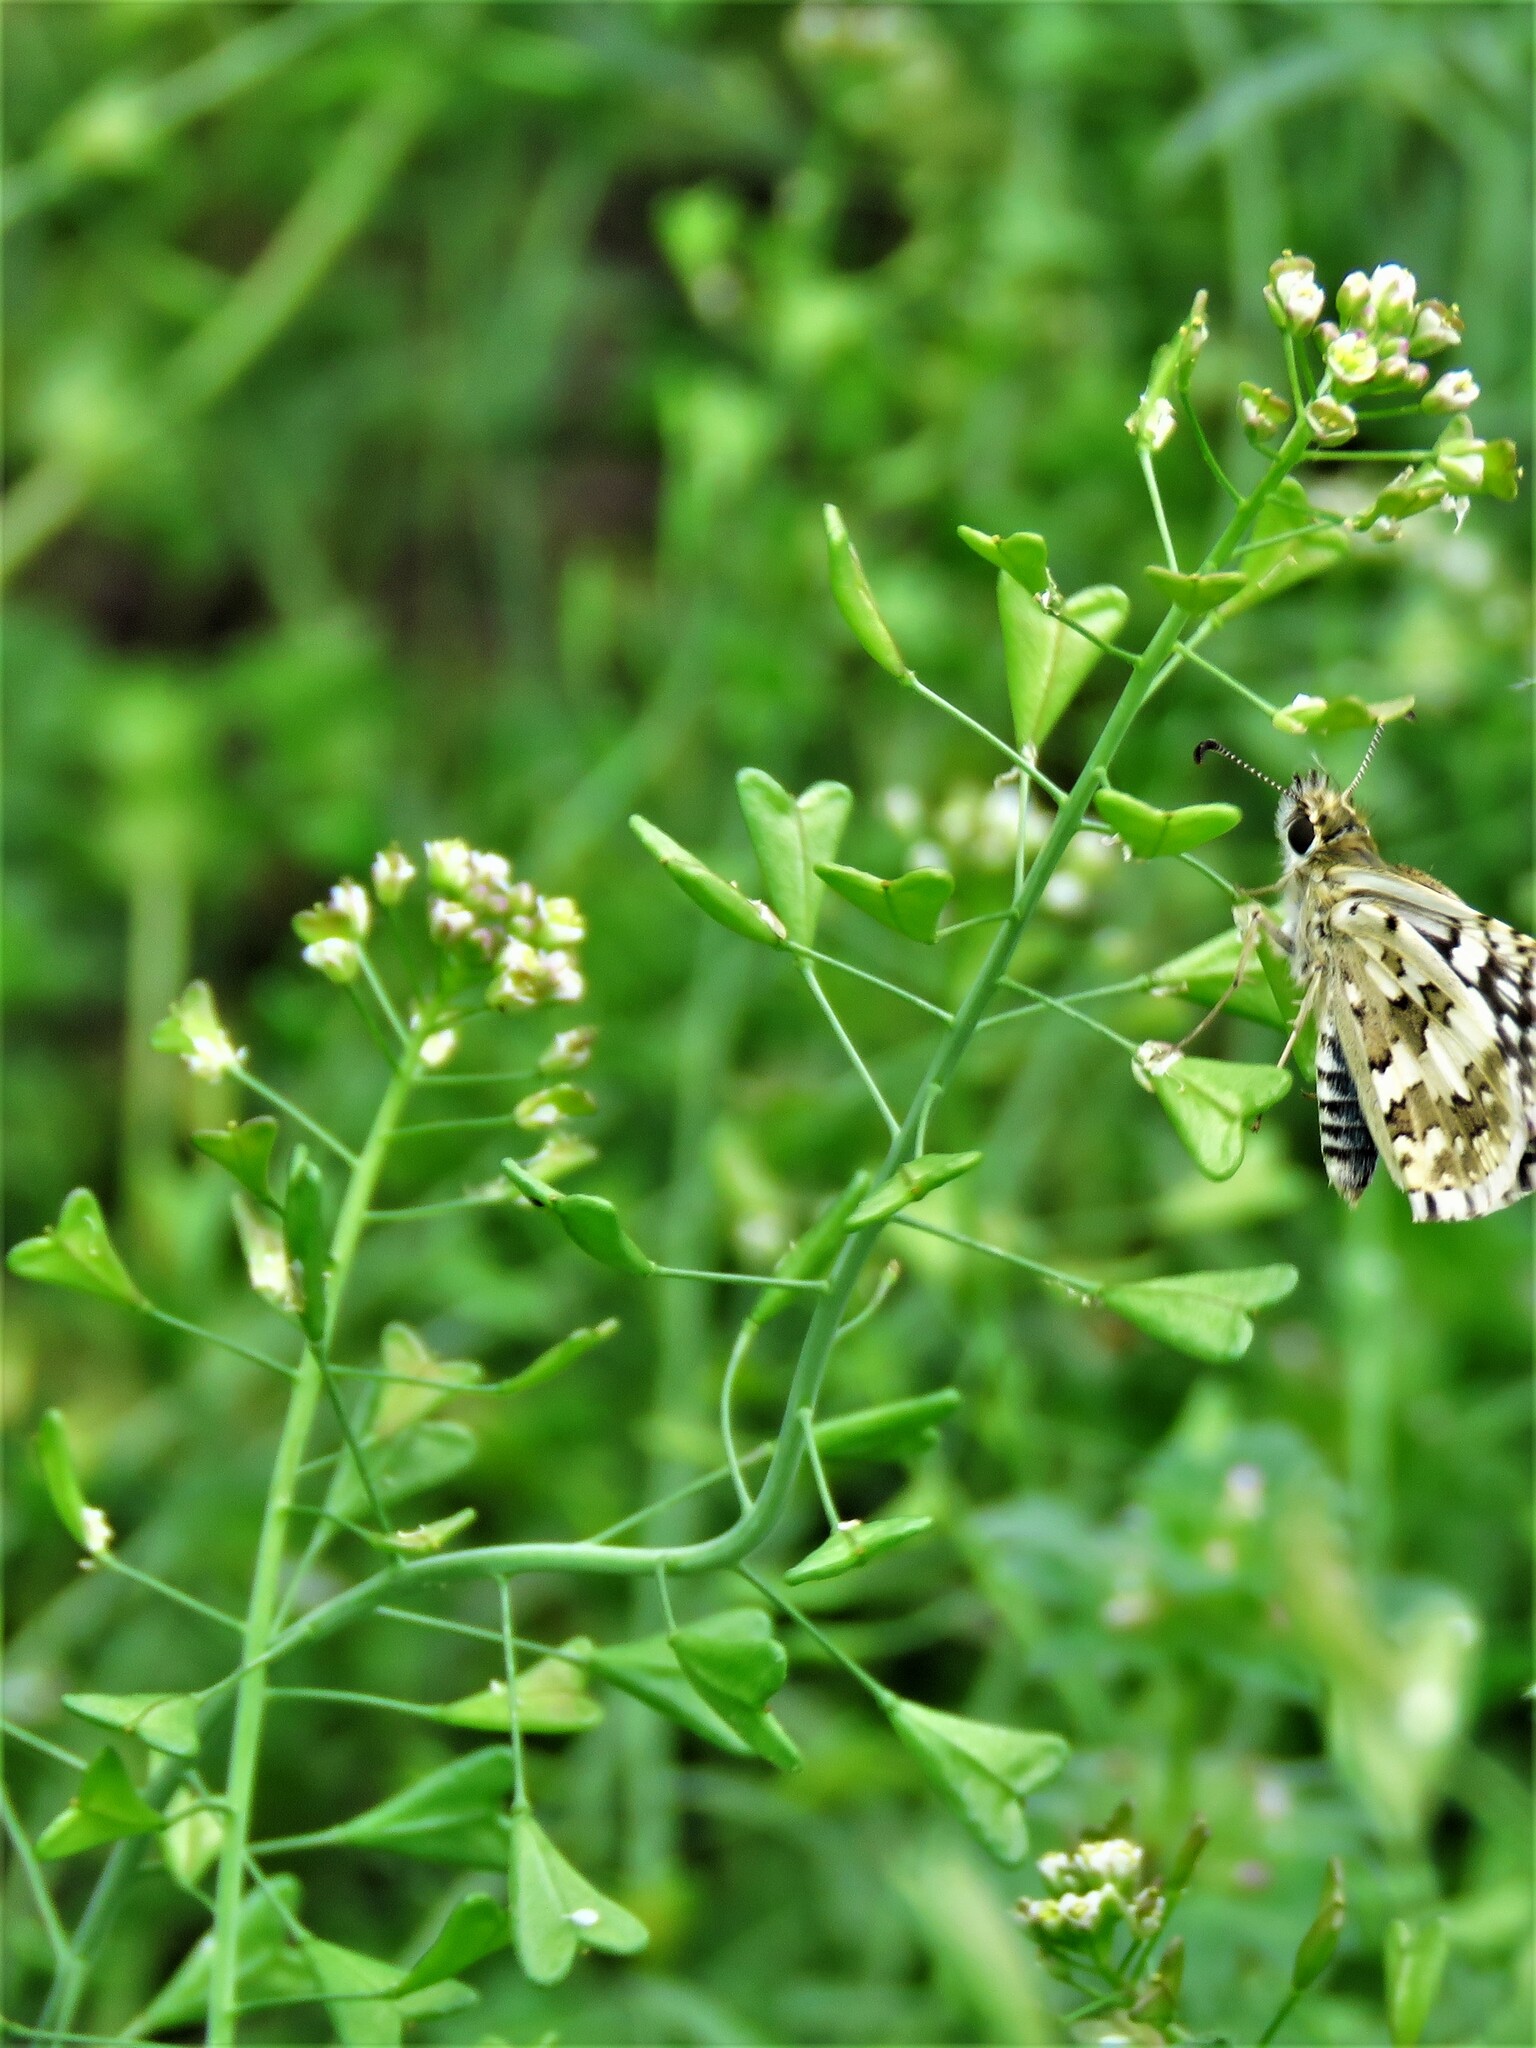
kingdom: Plantae
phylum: Tracheophyta
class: Magnoliopsida
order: Brassicales
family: Brassicaceae
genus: Capsella
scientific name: Capsella bursa-pastoris
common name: Shepherd's purse
